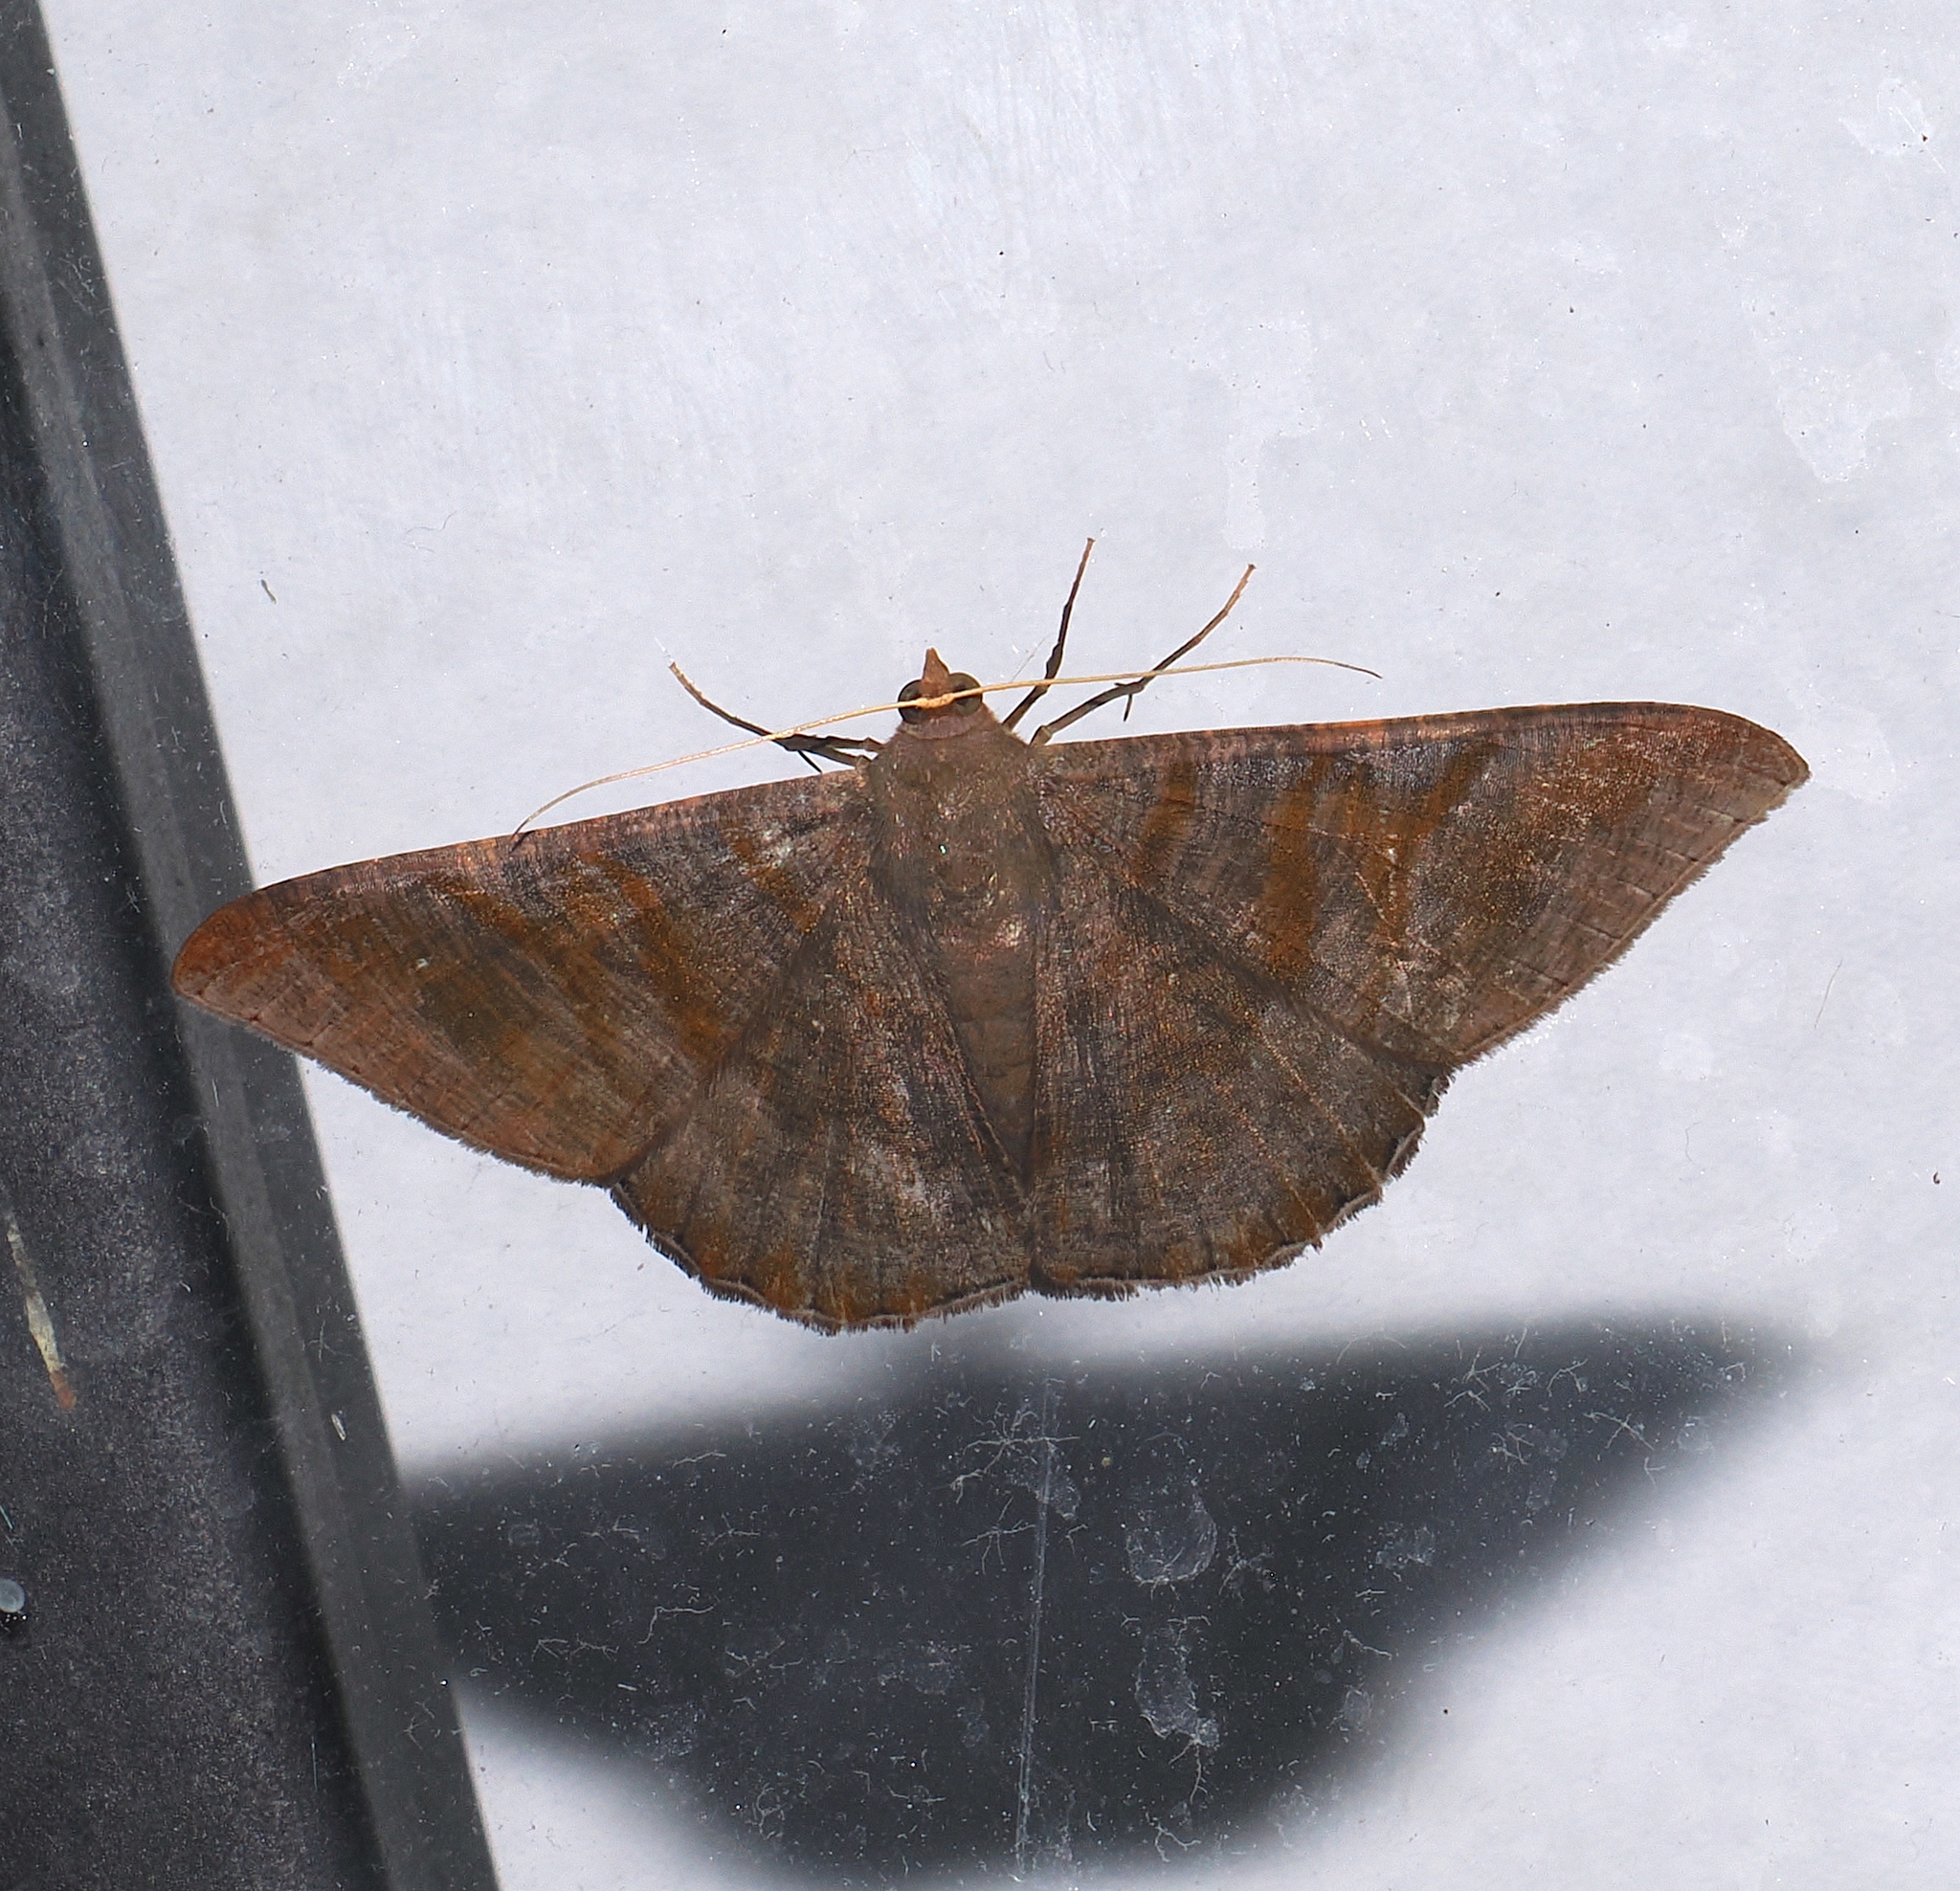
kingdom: Animalia
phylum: Arthropoda
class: Insecta
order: Lepidoptera
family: Geometridae
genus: Sphacelodes
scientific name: Sphacelodes vulneraria
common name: Looper moth
